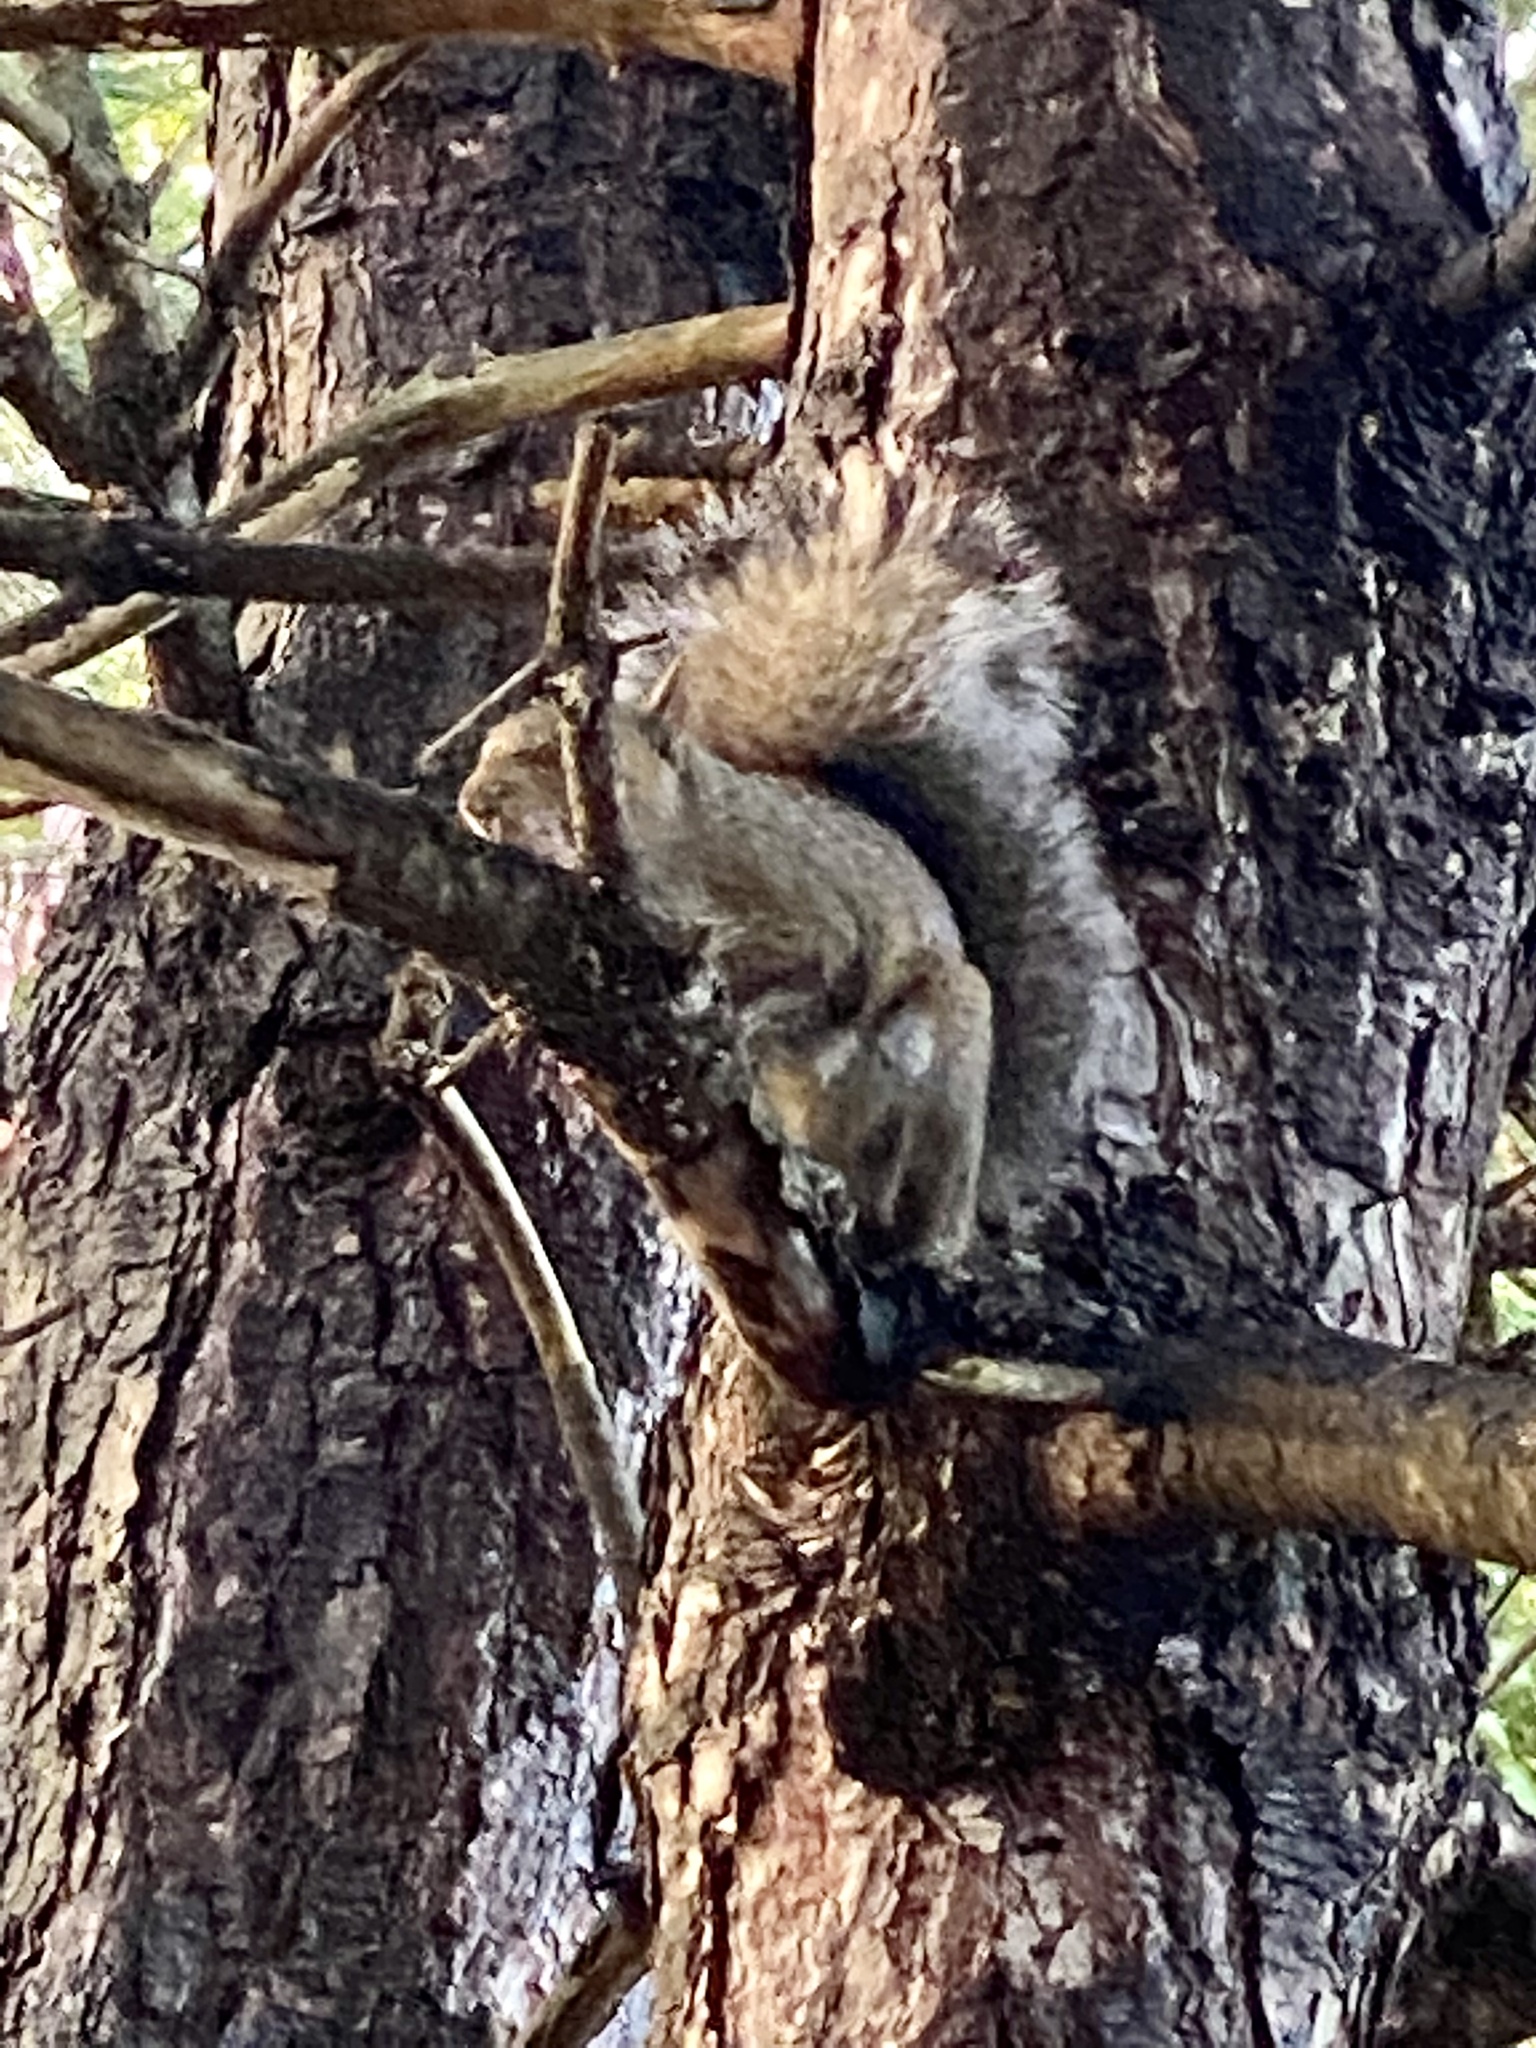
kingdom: Animalia
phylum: Chordata
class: Mammalia
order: Rodentia
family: Sciuridae
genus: Sciurus
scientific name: Sciurus carolinensis
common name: Eastern gray squirrel
